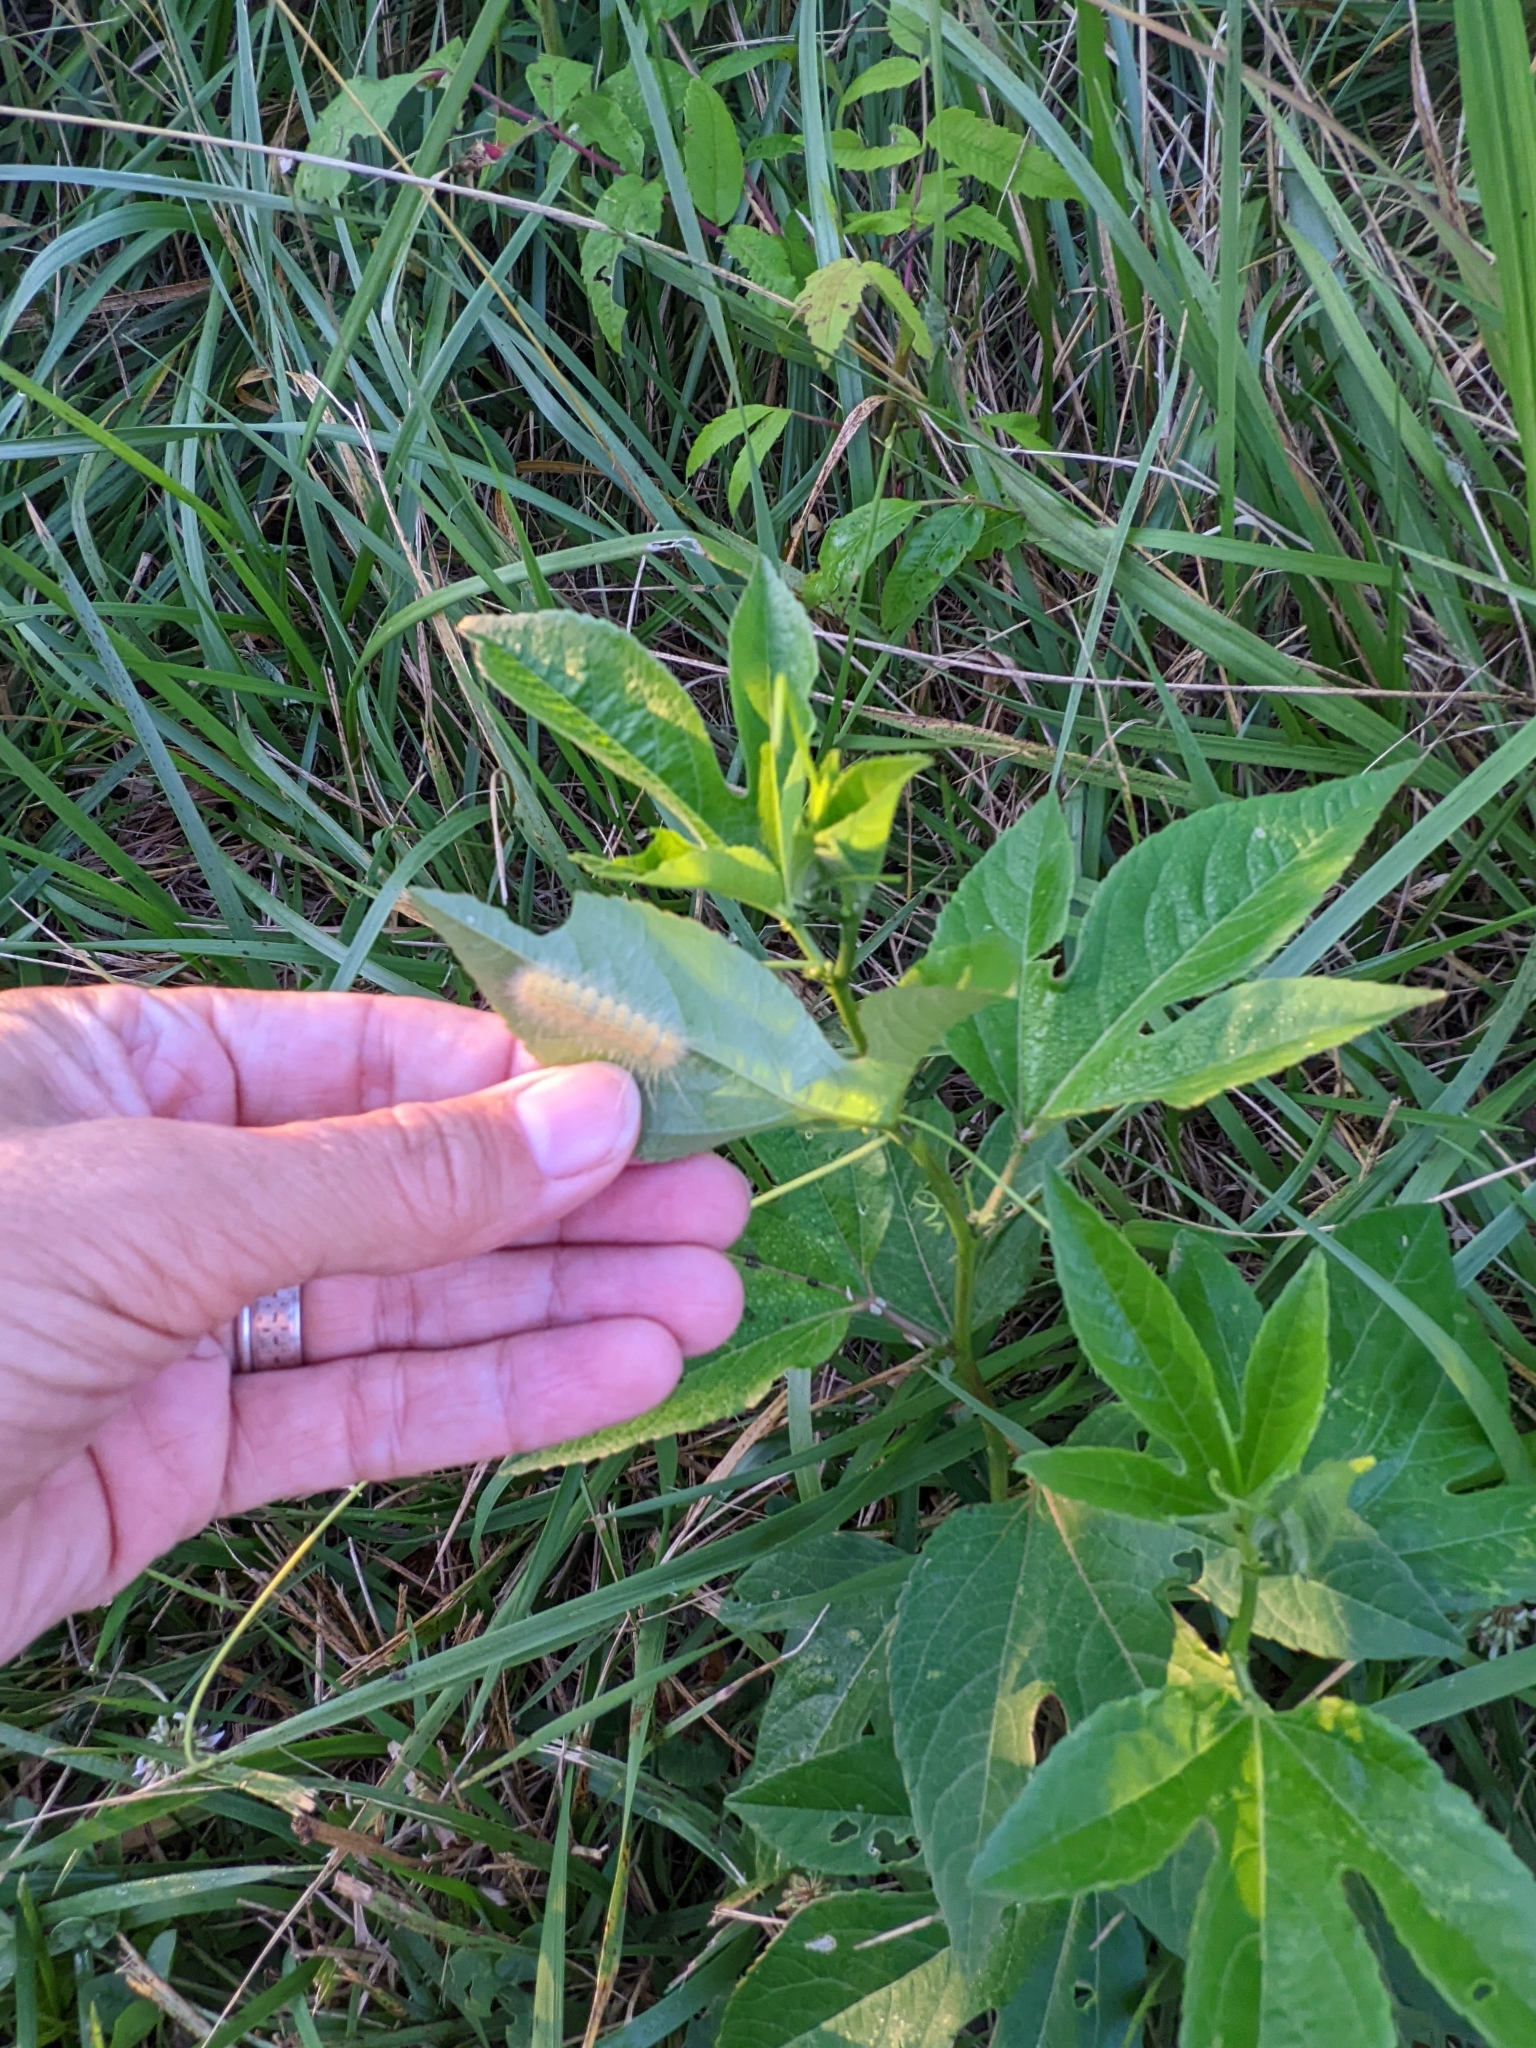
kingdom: Animalia
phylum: Arthropoda
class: Insecta
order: Lepidoptera
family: Erebidae
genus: Estigmene
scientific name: Estigmene acrea
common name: Salt marsh moth
